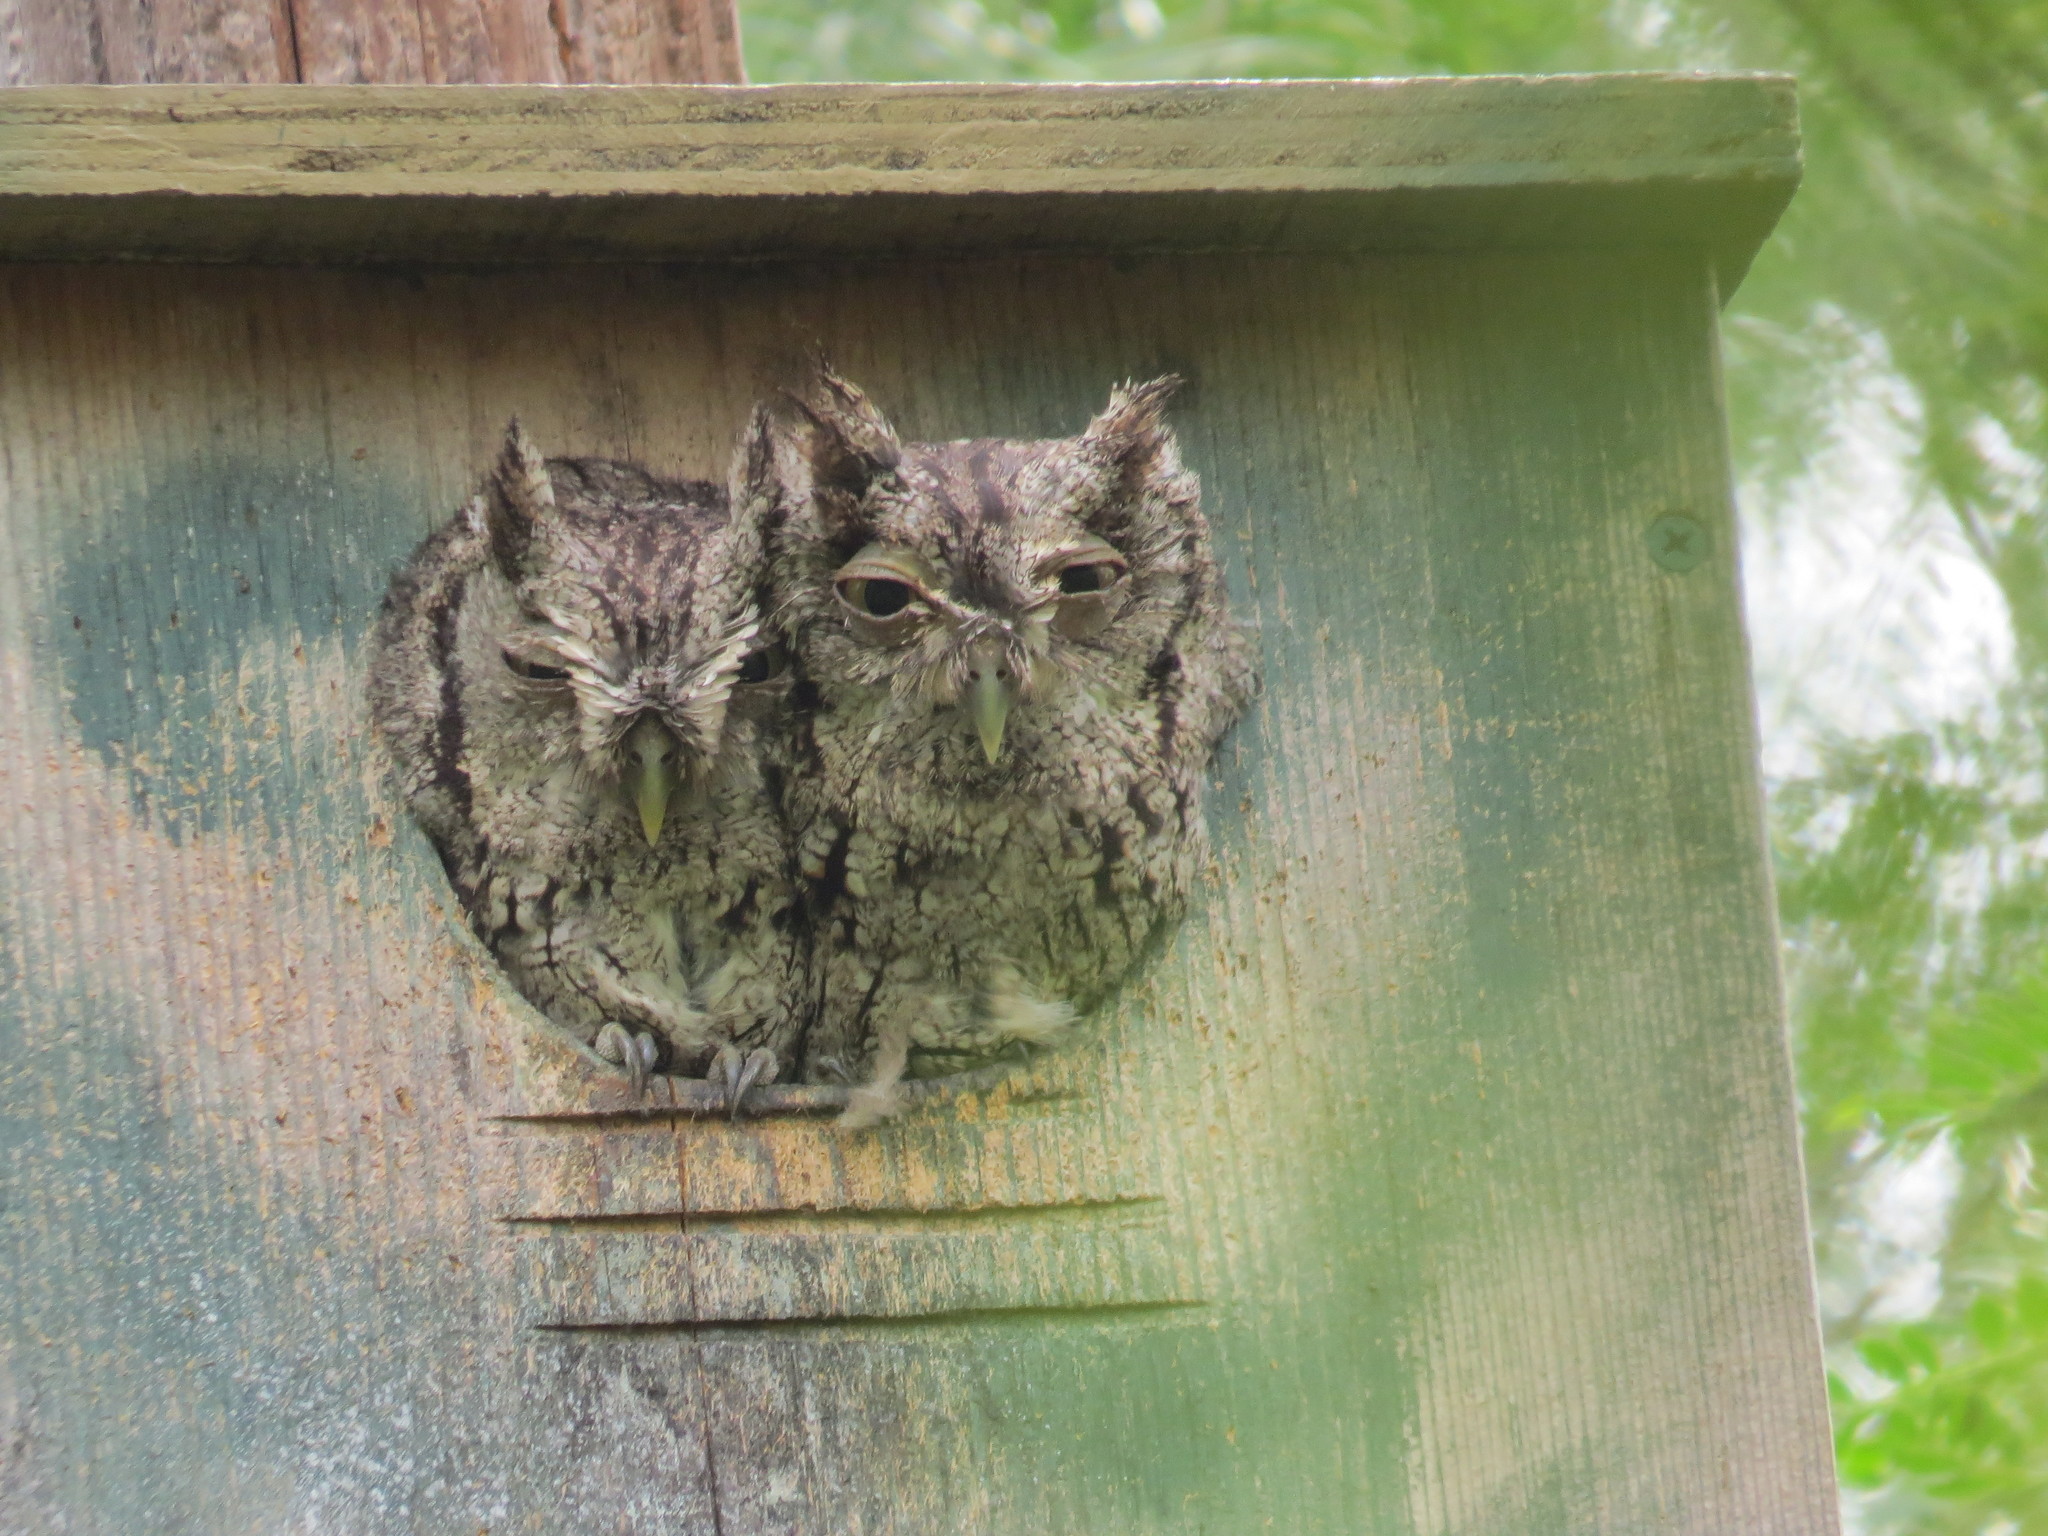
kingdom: Animalia
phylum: Chordata
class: Aves
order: Strigiformes
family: Strigidae
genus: Megascops
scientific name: Megascops asio
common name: Eastern screech-owl
